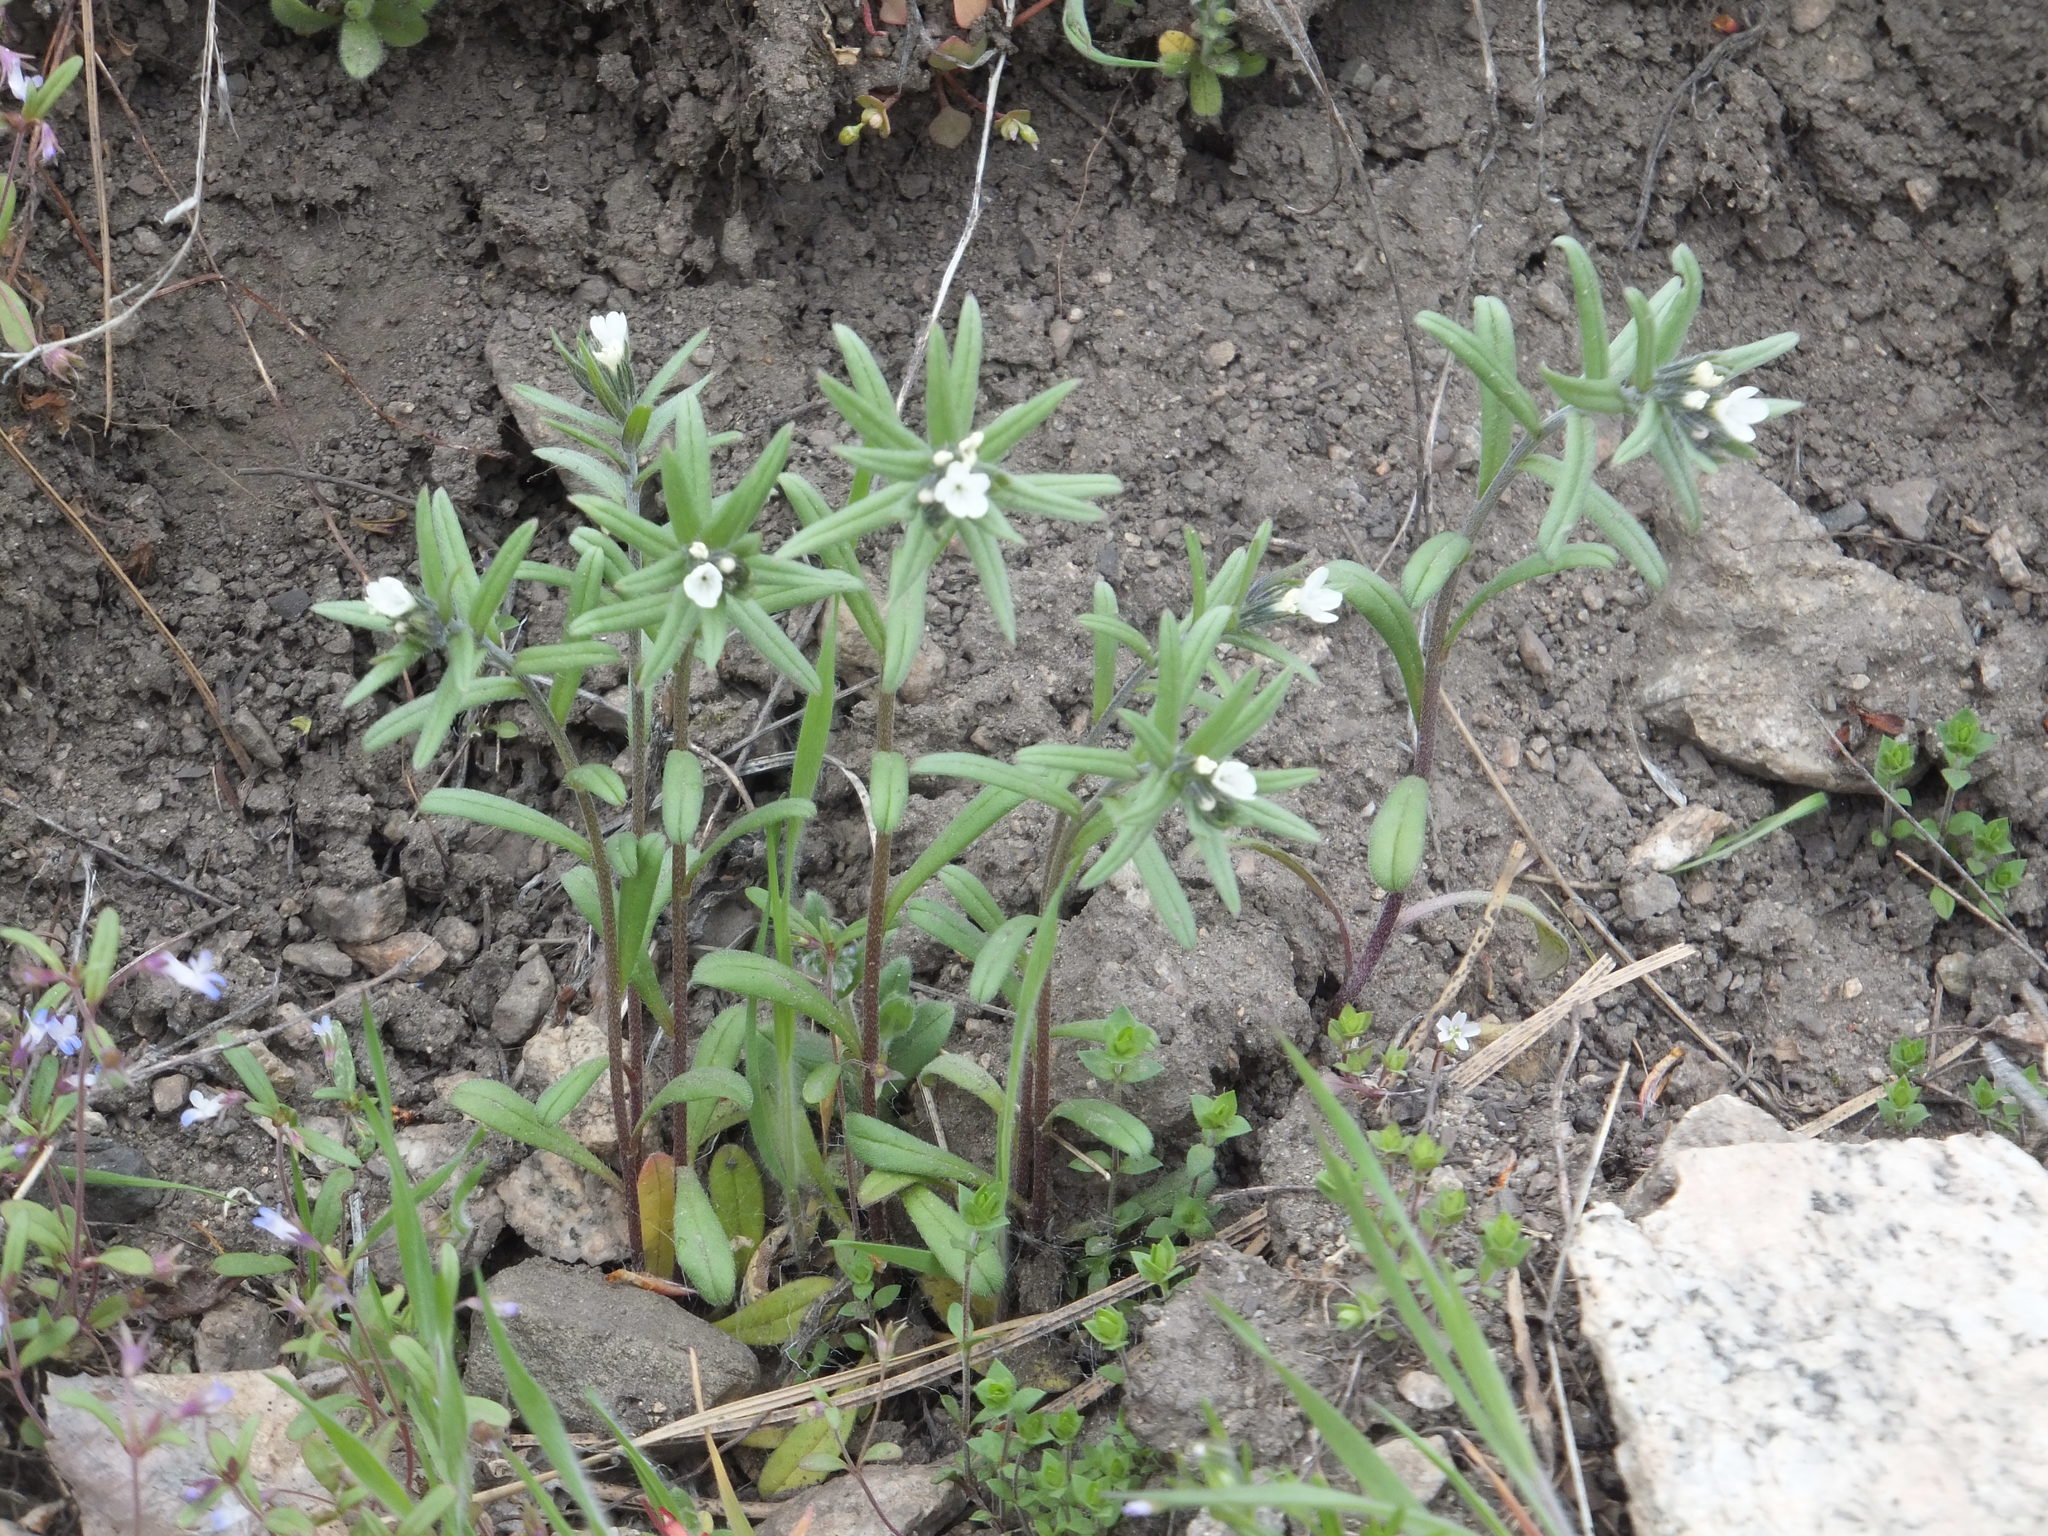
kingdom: Plantae
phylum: Tracheophyta
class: Magnoliopsida
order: Boraginales
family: Boraginaceae
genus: Buglossoides
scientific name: Buglossoides arvensis
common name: Corn gromwell
